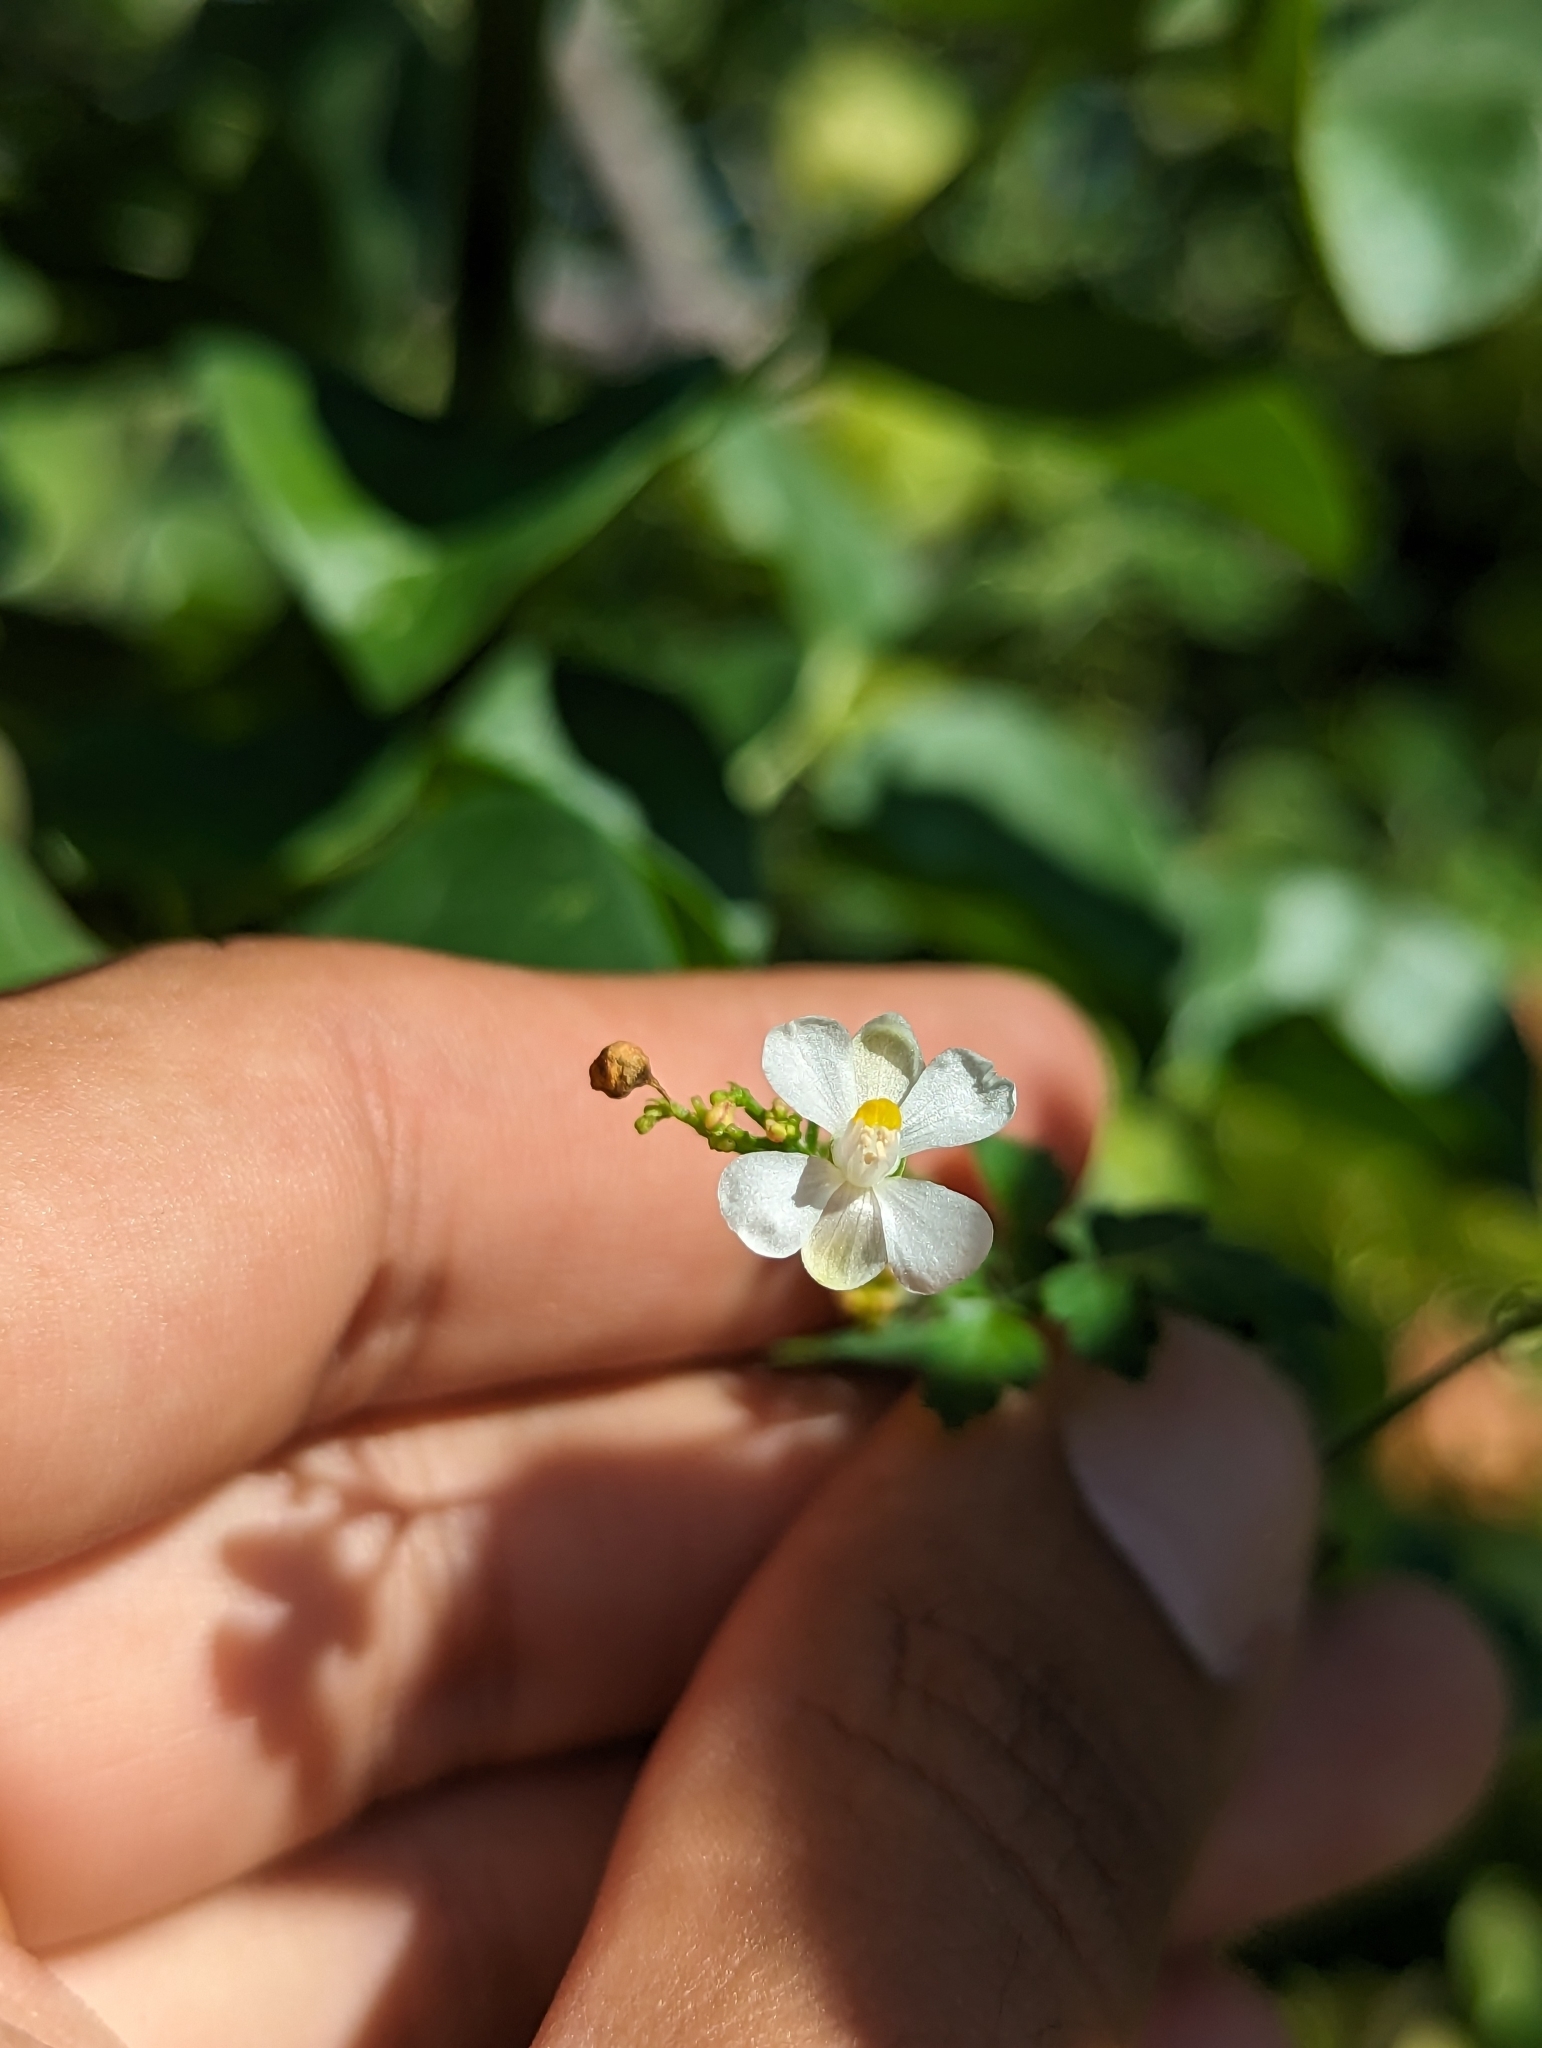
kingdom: Plantae
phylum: Tracheophyta
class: Magnoliopsida
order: Sapindales
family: Sapindaceae
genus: Cardiospermum
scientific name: Cardiospermum corindum
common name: Faux persil
